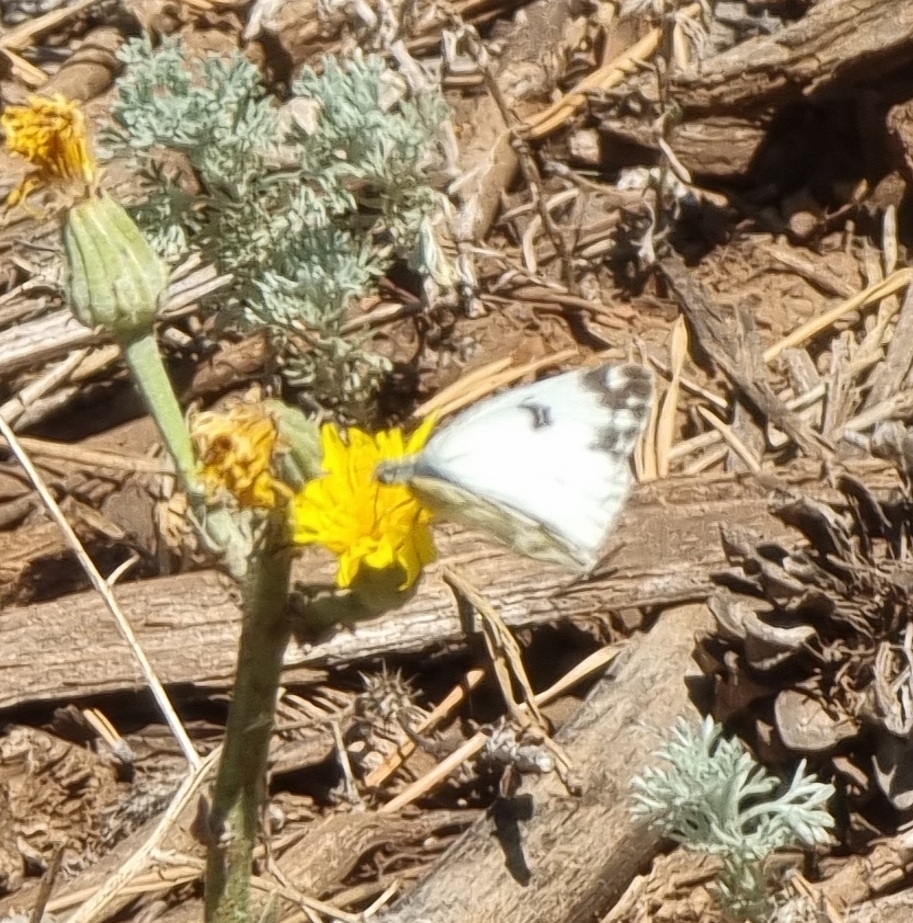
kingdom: Animalia
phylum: Arthropoda
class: Insecta
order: Lepidoptera
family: Pieridae
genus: Pontia
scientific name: Pontia edusa
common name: Eastern bath white
